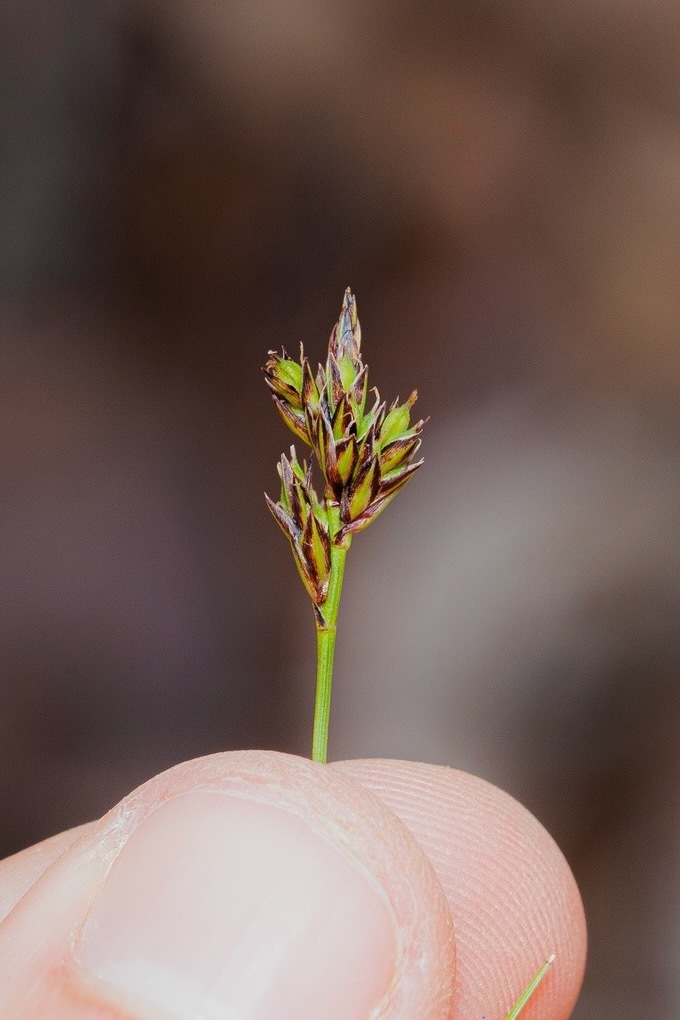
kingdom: Plantae
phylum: Tracheophyta
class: Liliopsida
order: Poales
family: Cyperaceae
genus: Carex
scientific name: Carex nigromarginata
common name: Black-edged sedge
